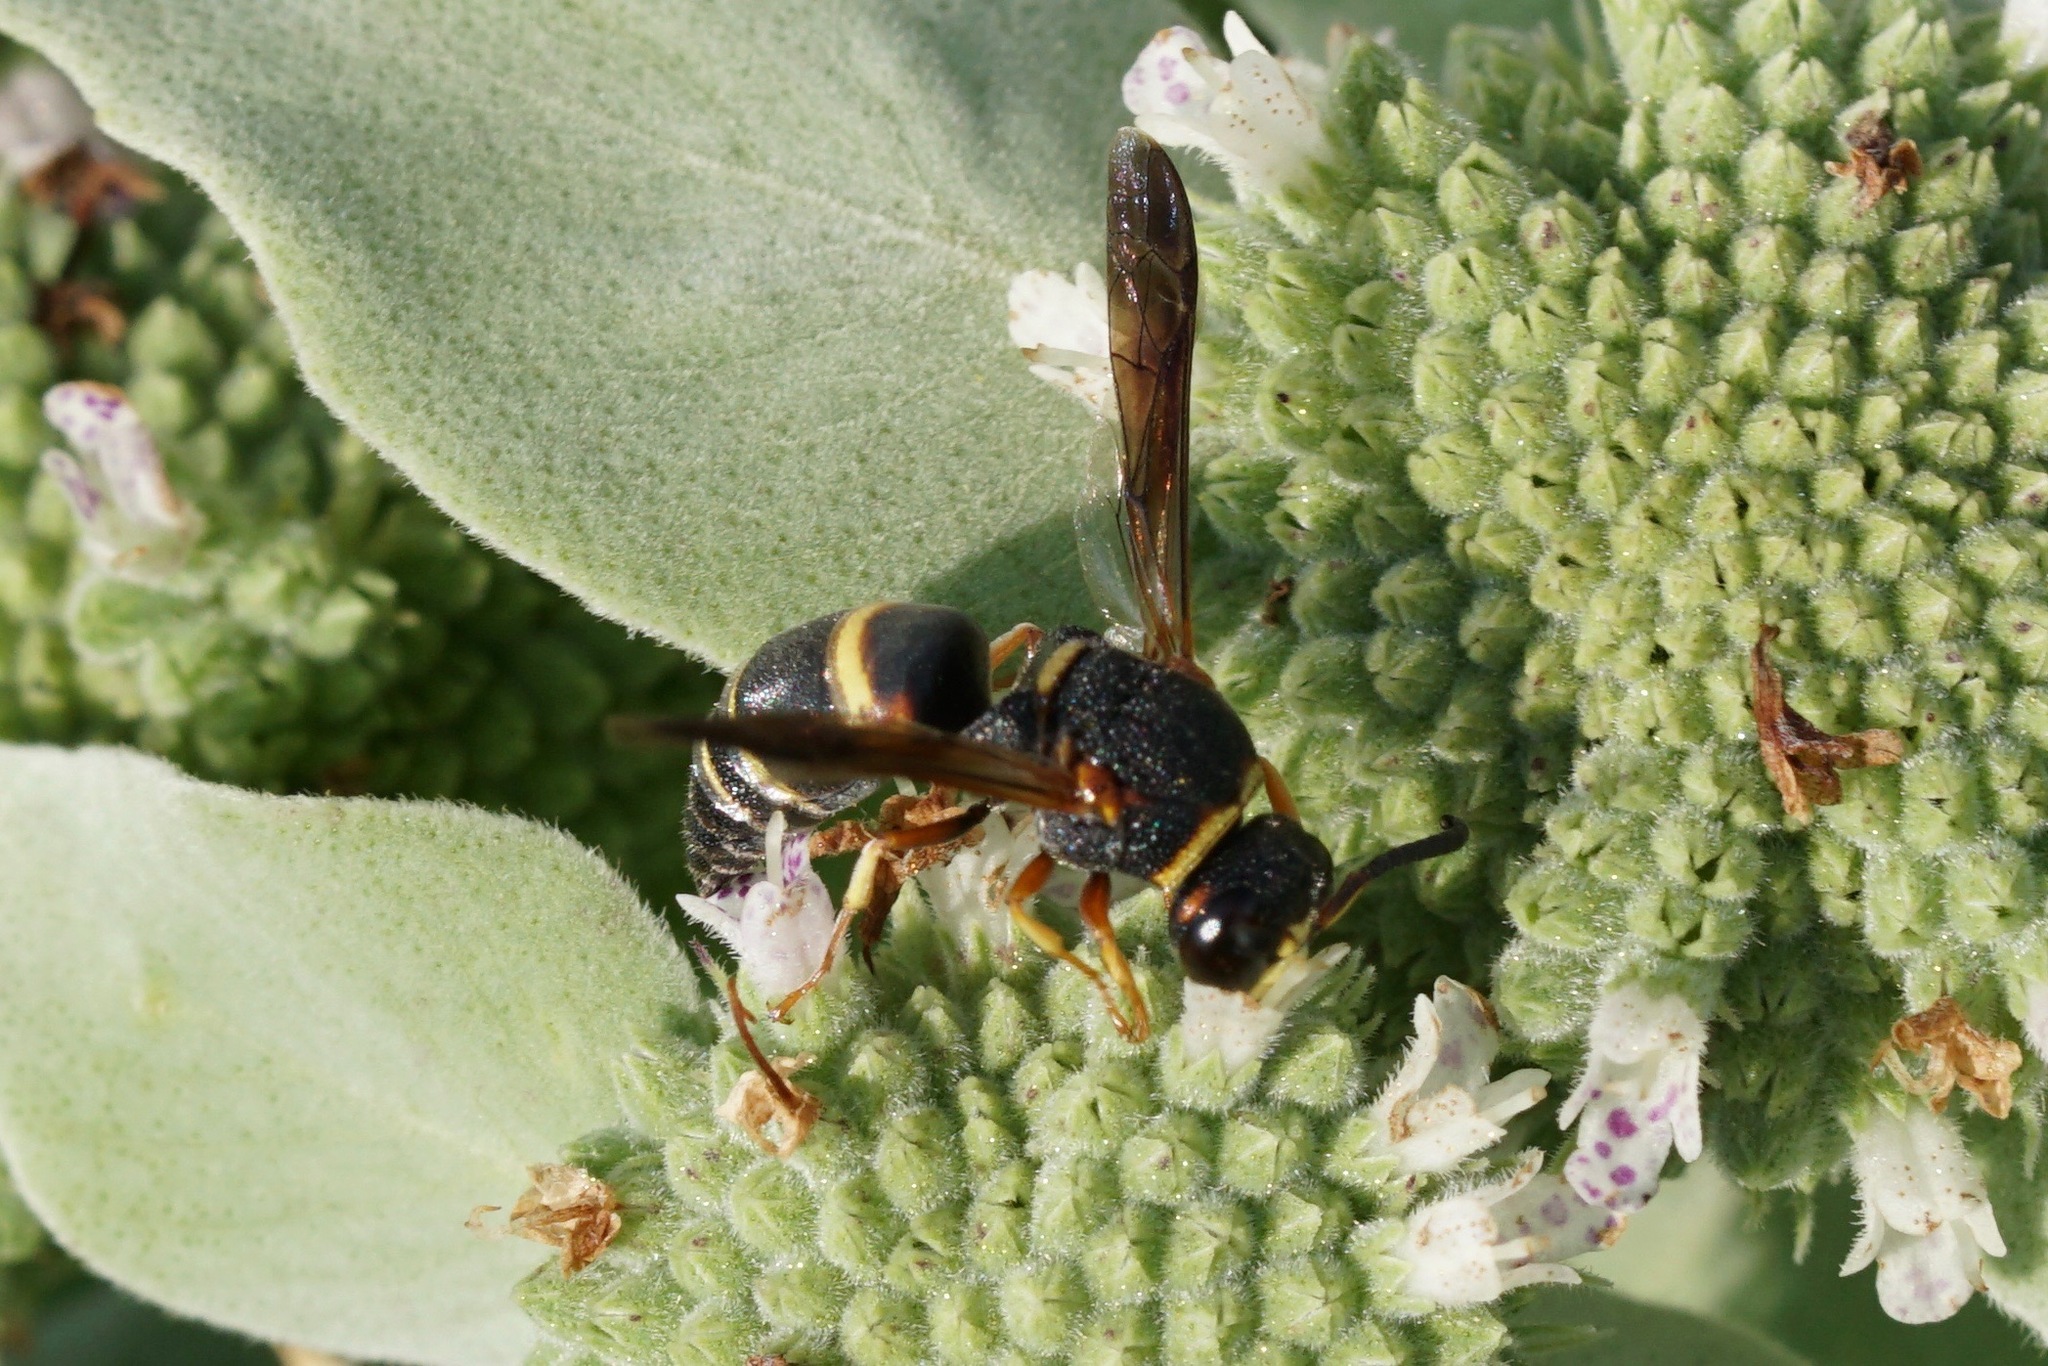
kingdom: Animalia
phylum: Arthropoda
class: Insecta
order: Hymenoptera
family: Eumenidae
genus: Euodynerus
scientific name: Euodynerus hidalgo
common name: Wasp
